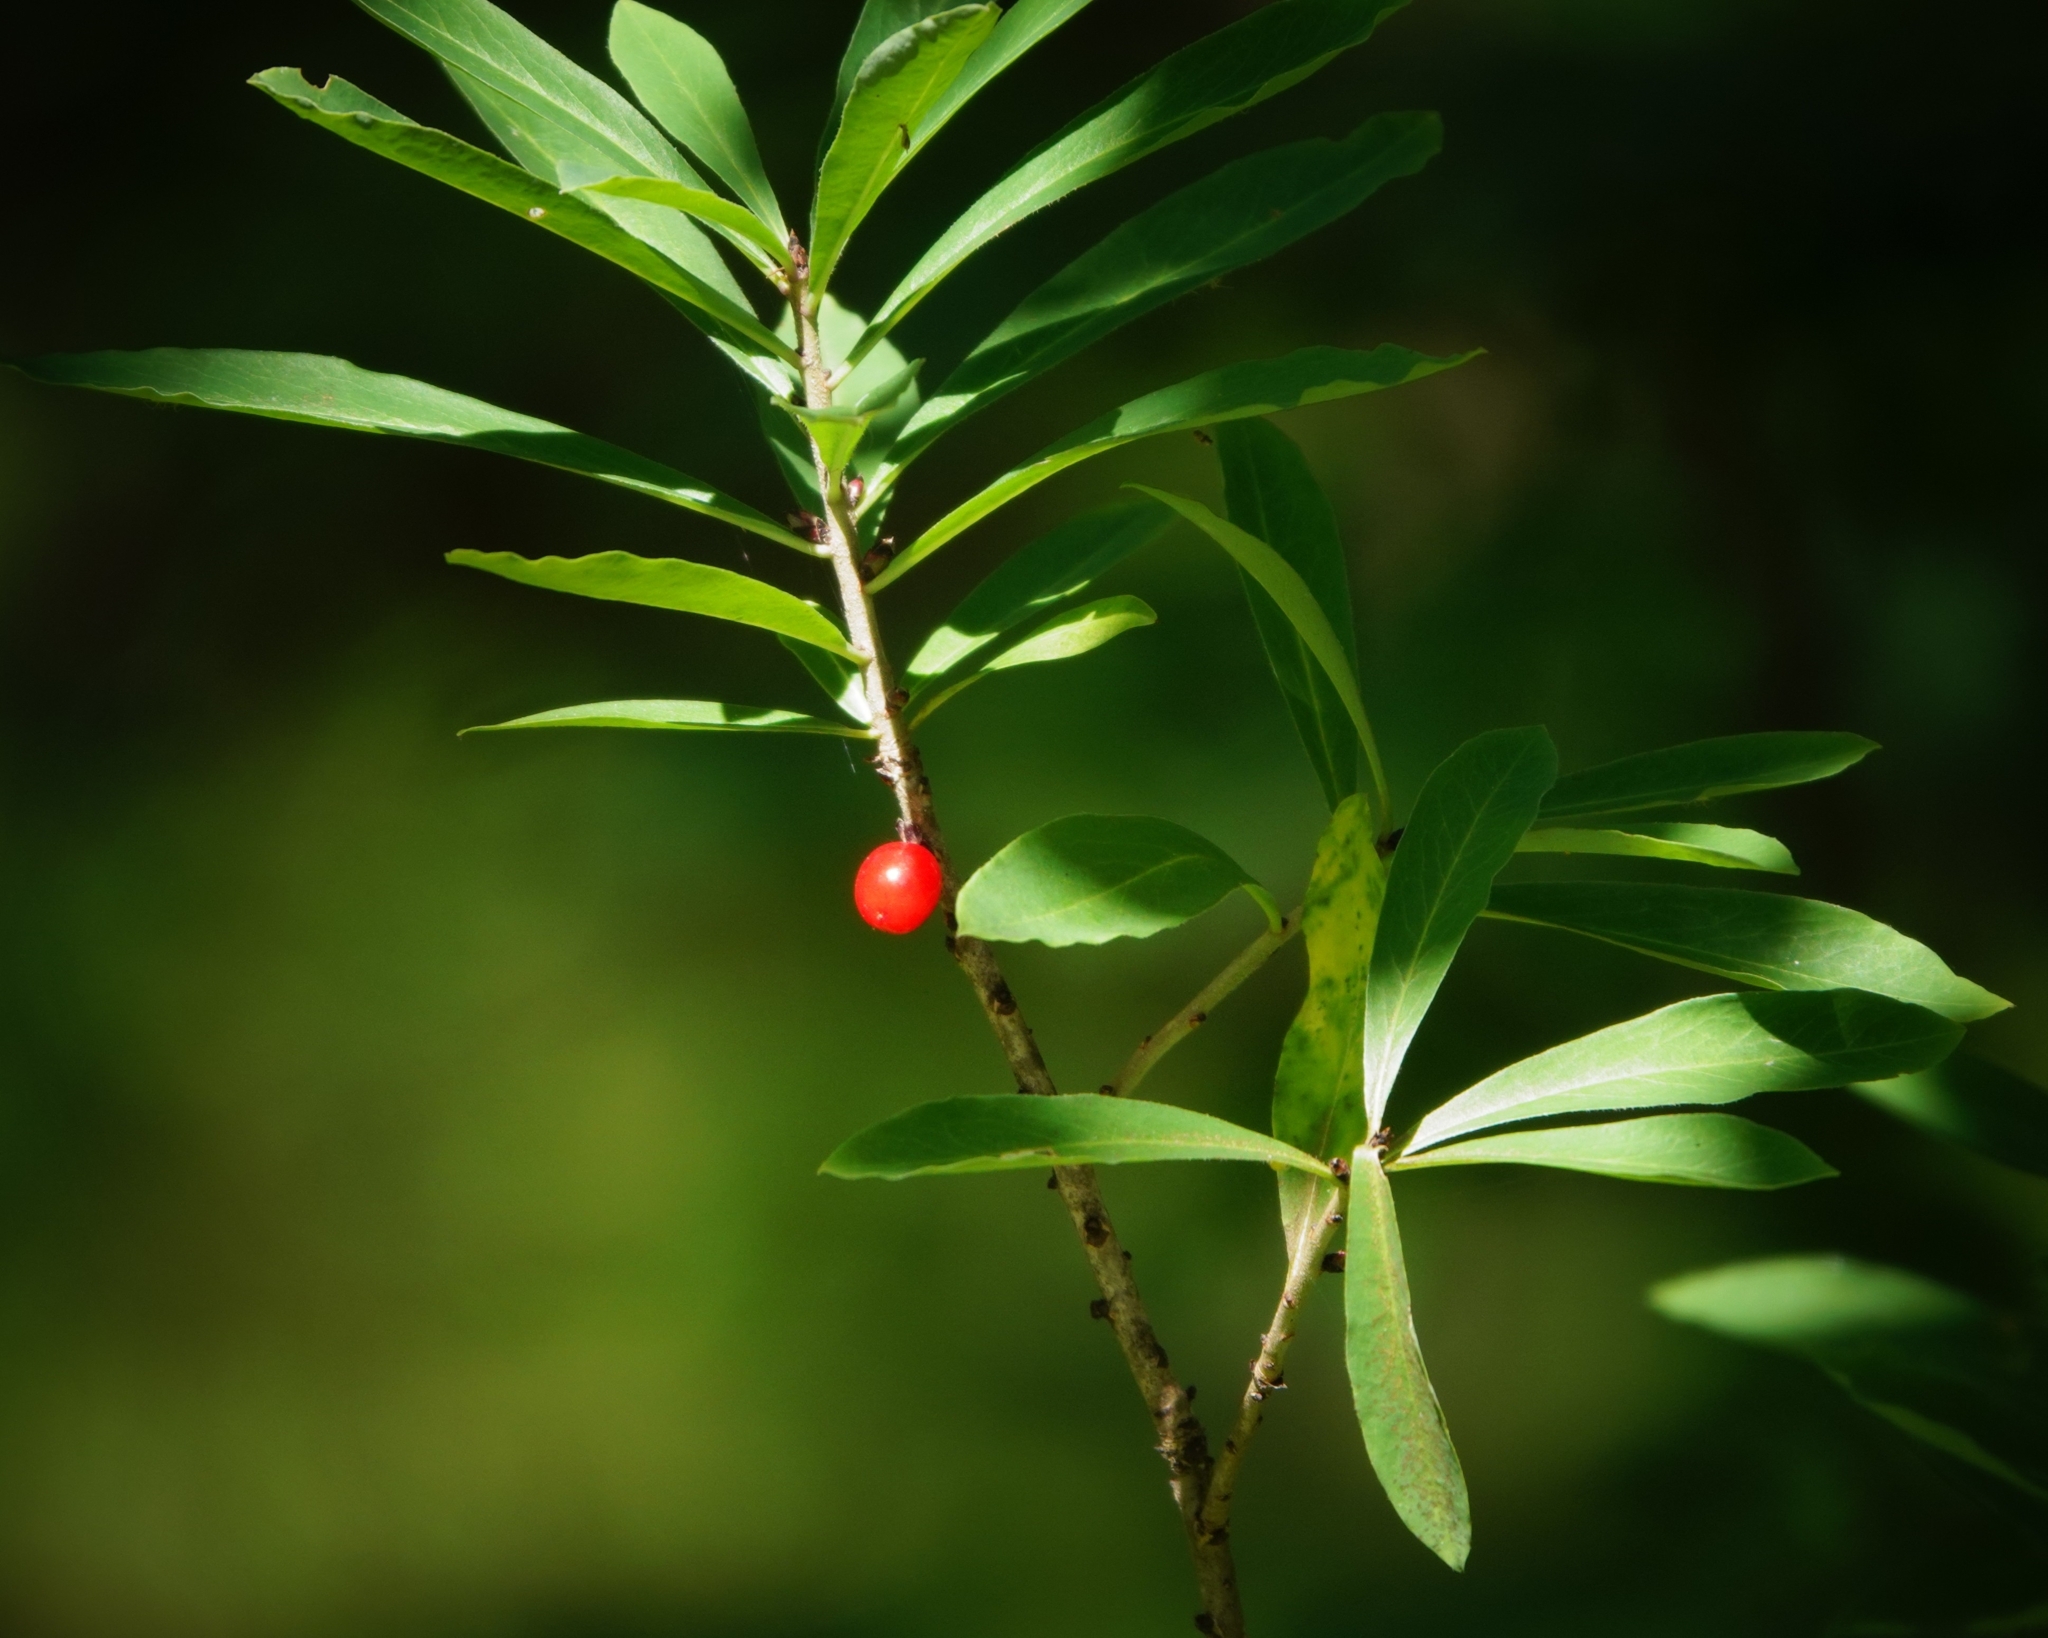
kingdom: Plantae
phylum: Tracheophyta
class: Magnoliopsida
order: Malvales
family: Thymelaeaceae
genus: Daphne
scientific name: Daphne mezereum
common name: Mezereon
